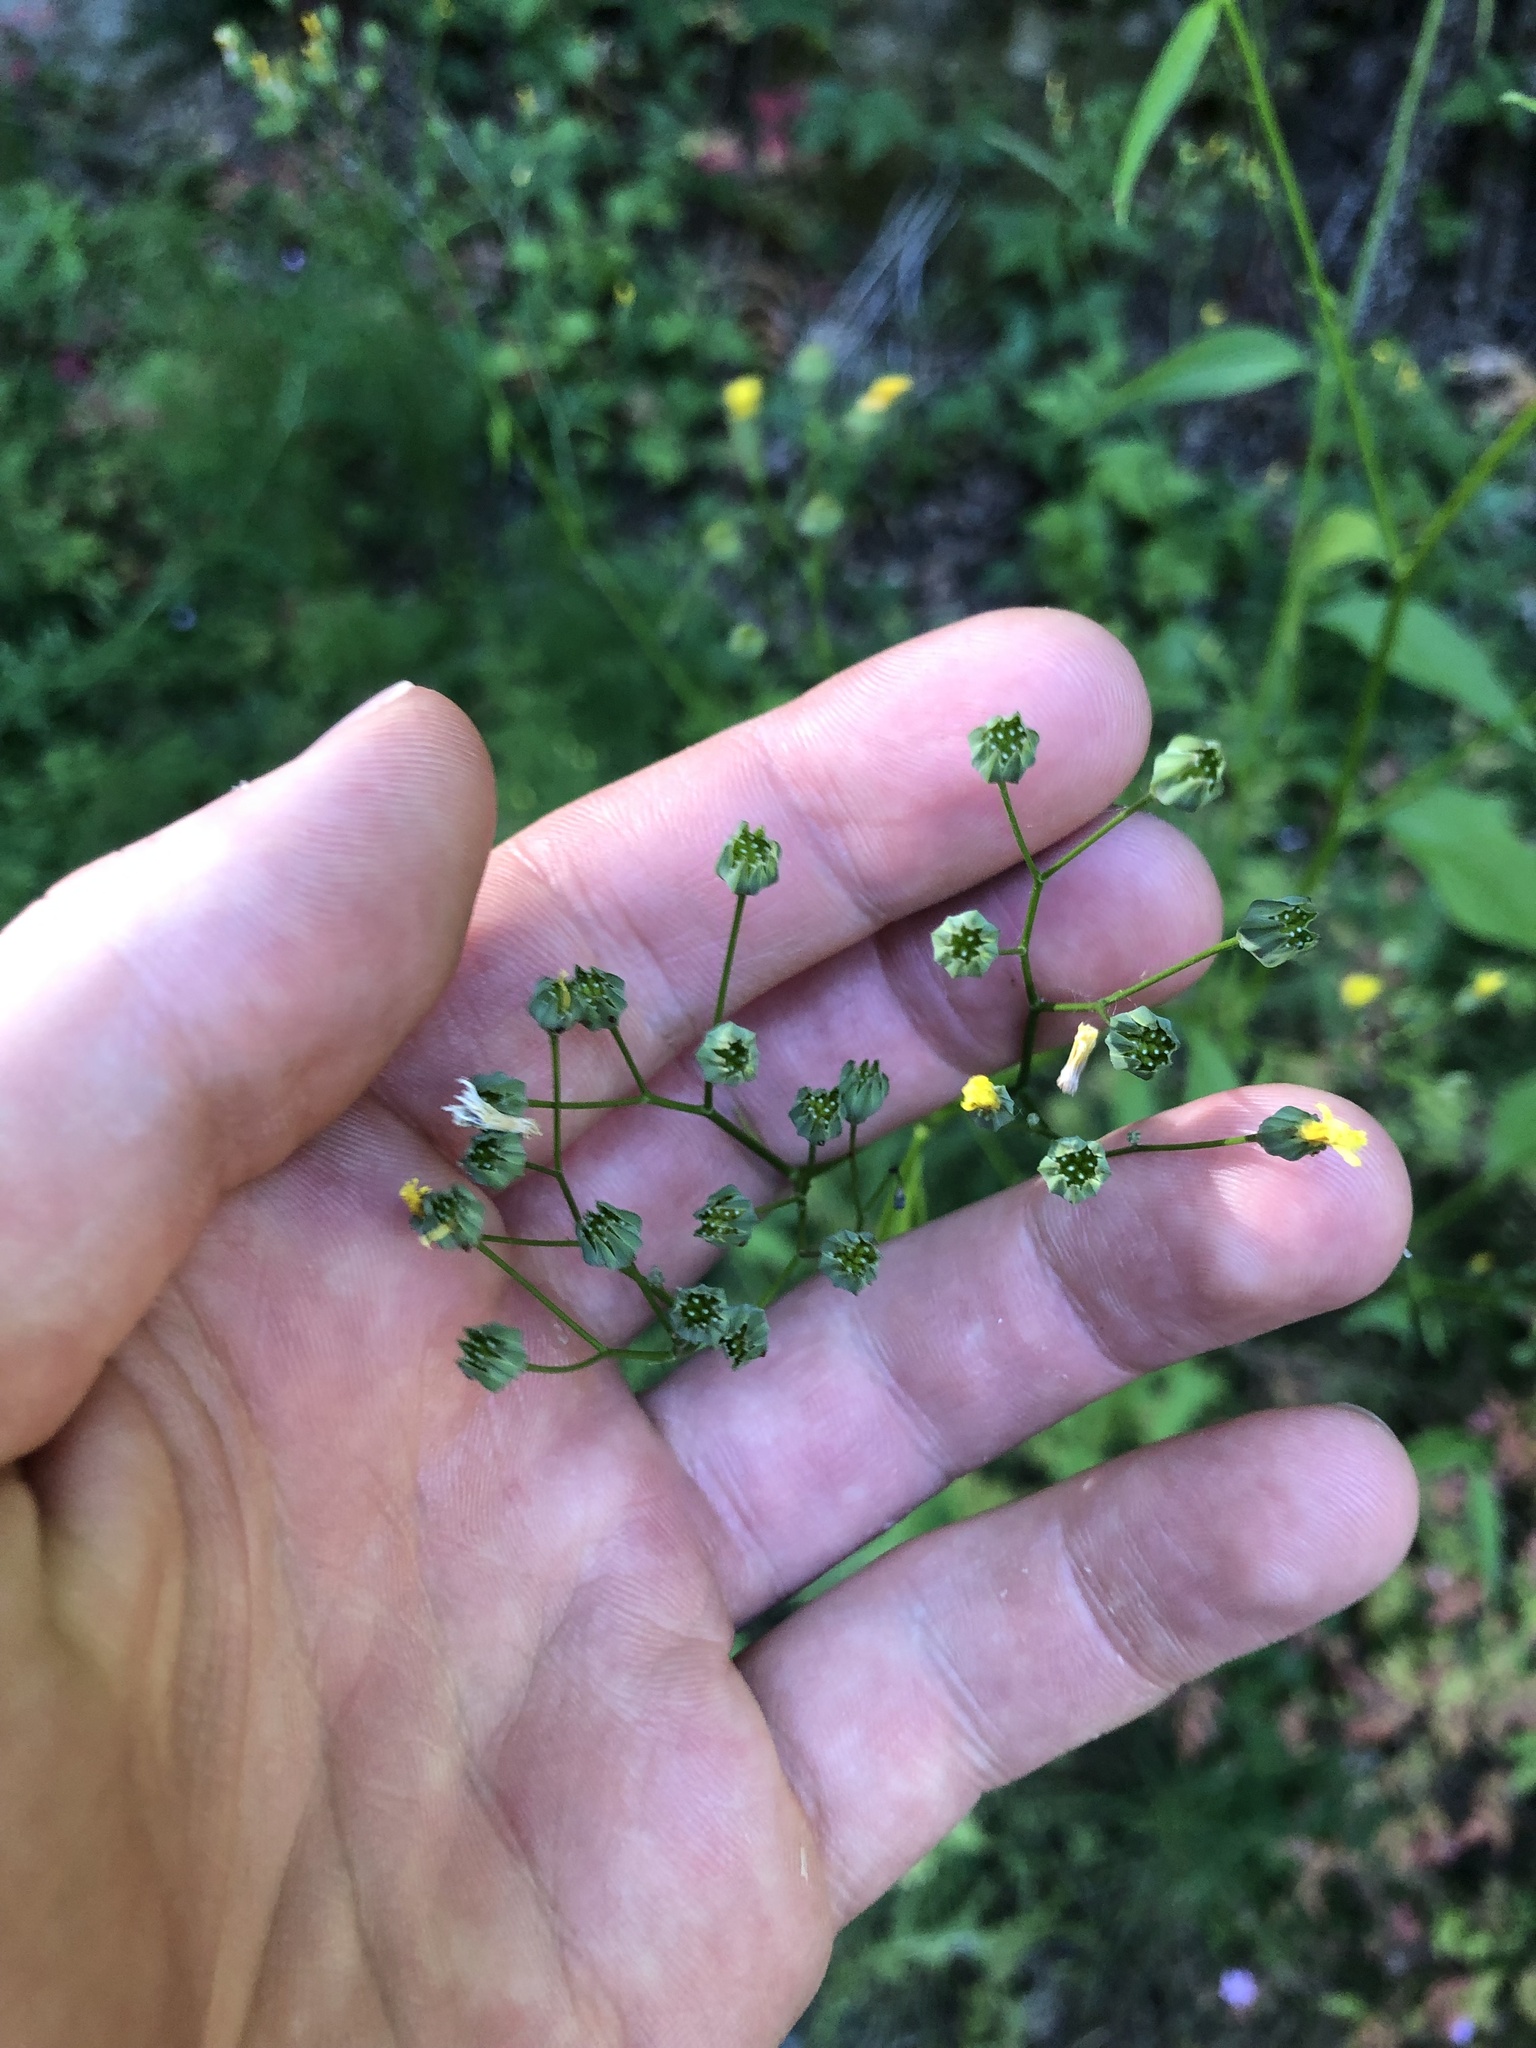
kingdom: Plantae
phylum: Tracheophyta
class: Magnoliopsida
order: Asterales
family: Asteraceae
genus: Lapsana
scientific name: Lapsana communis
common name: Nipplewort
